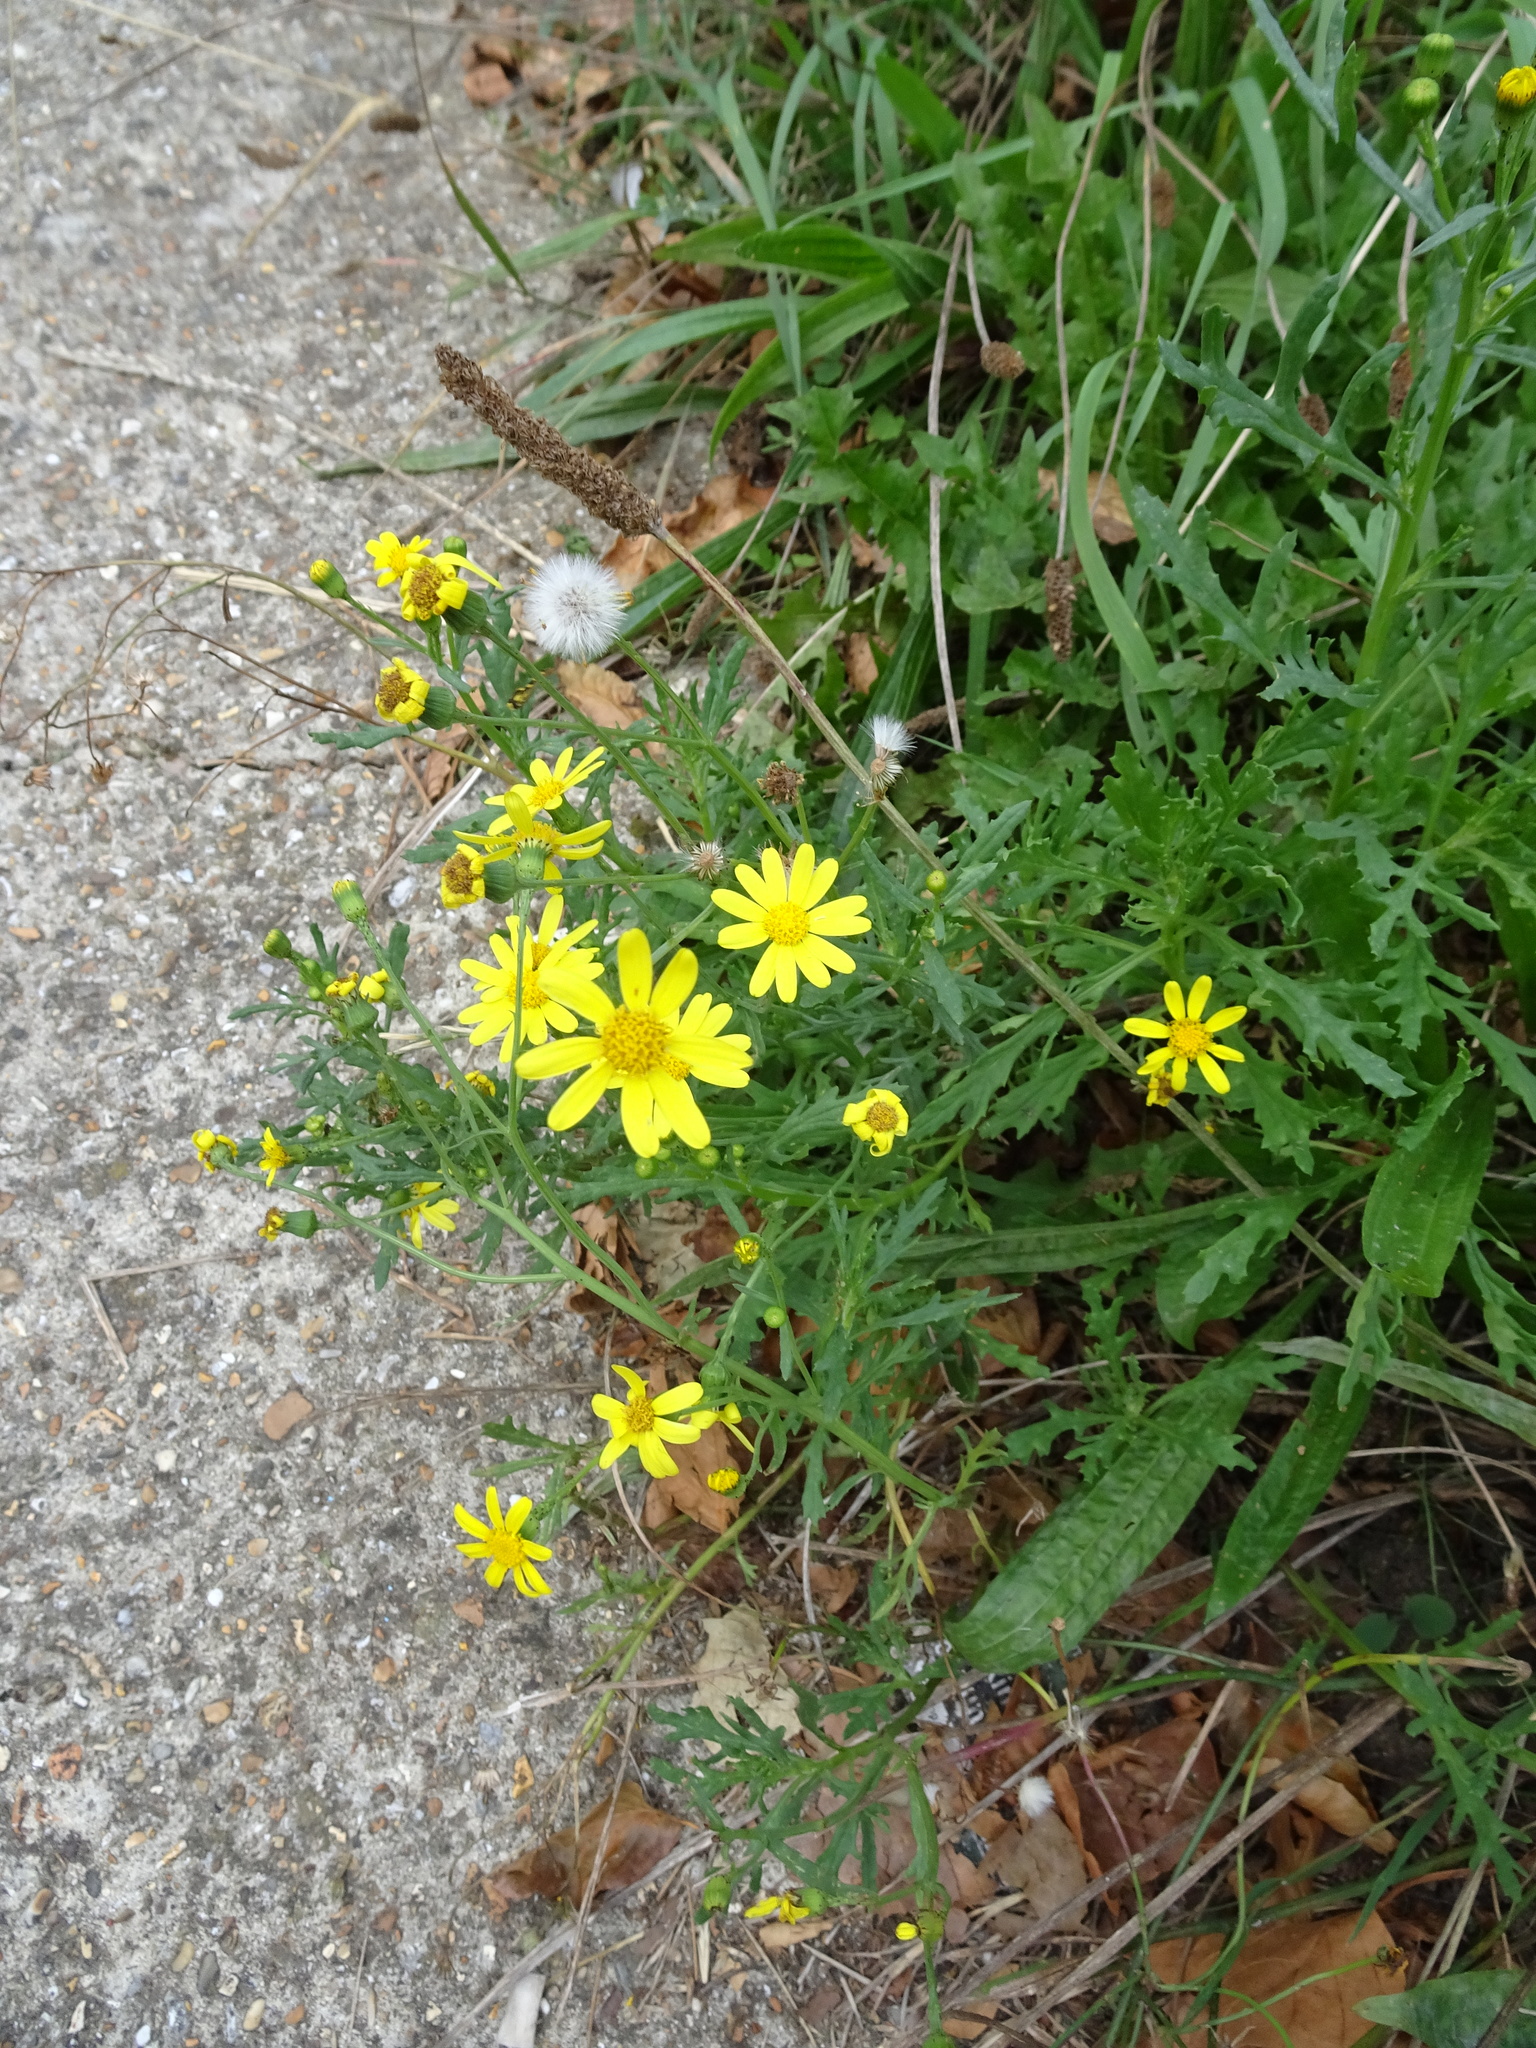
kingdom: Plantae
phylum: Tracheophyta
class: Magnoliopsida
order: Asterales
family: Asteraceae
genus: Senecio
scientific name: Senecio squalidus
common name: Oxford ragwort
